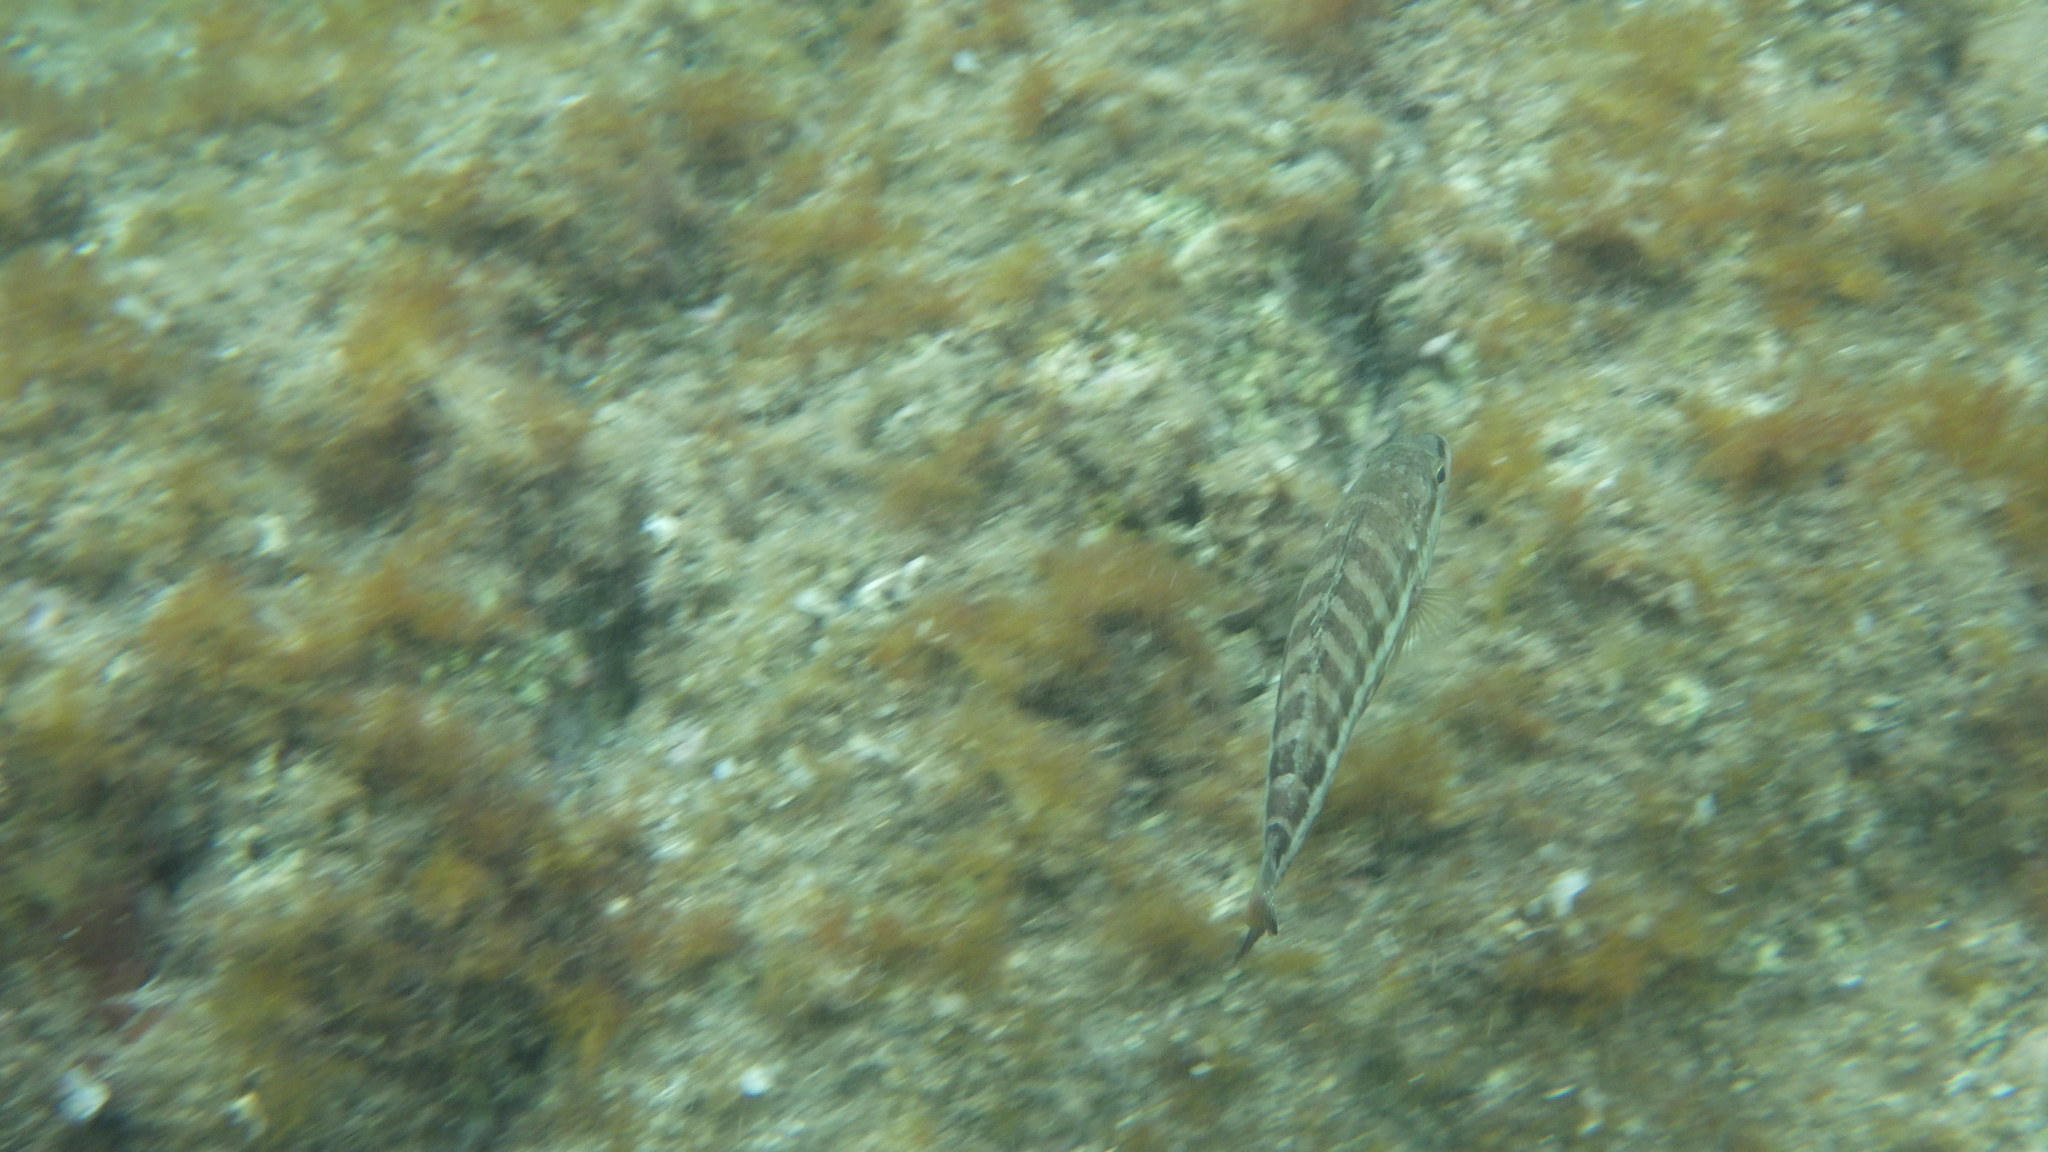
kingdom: Animalia
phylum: Chordata
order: Perciformes
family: Serranidae
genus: Serranus
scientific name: Serranus cabrilla
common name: Comber
